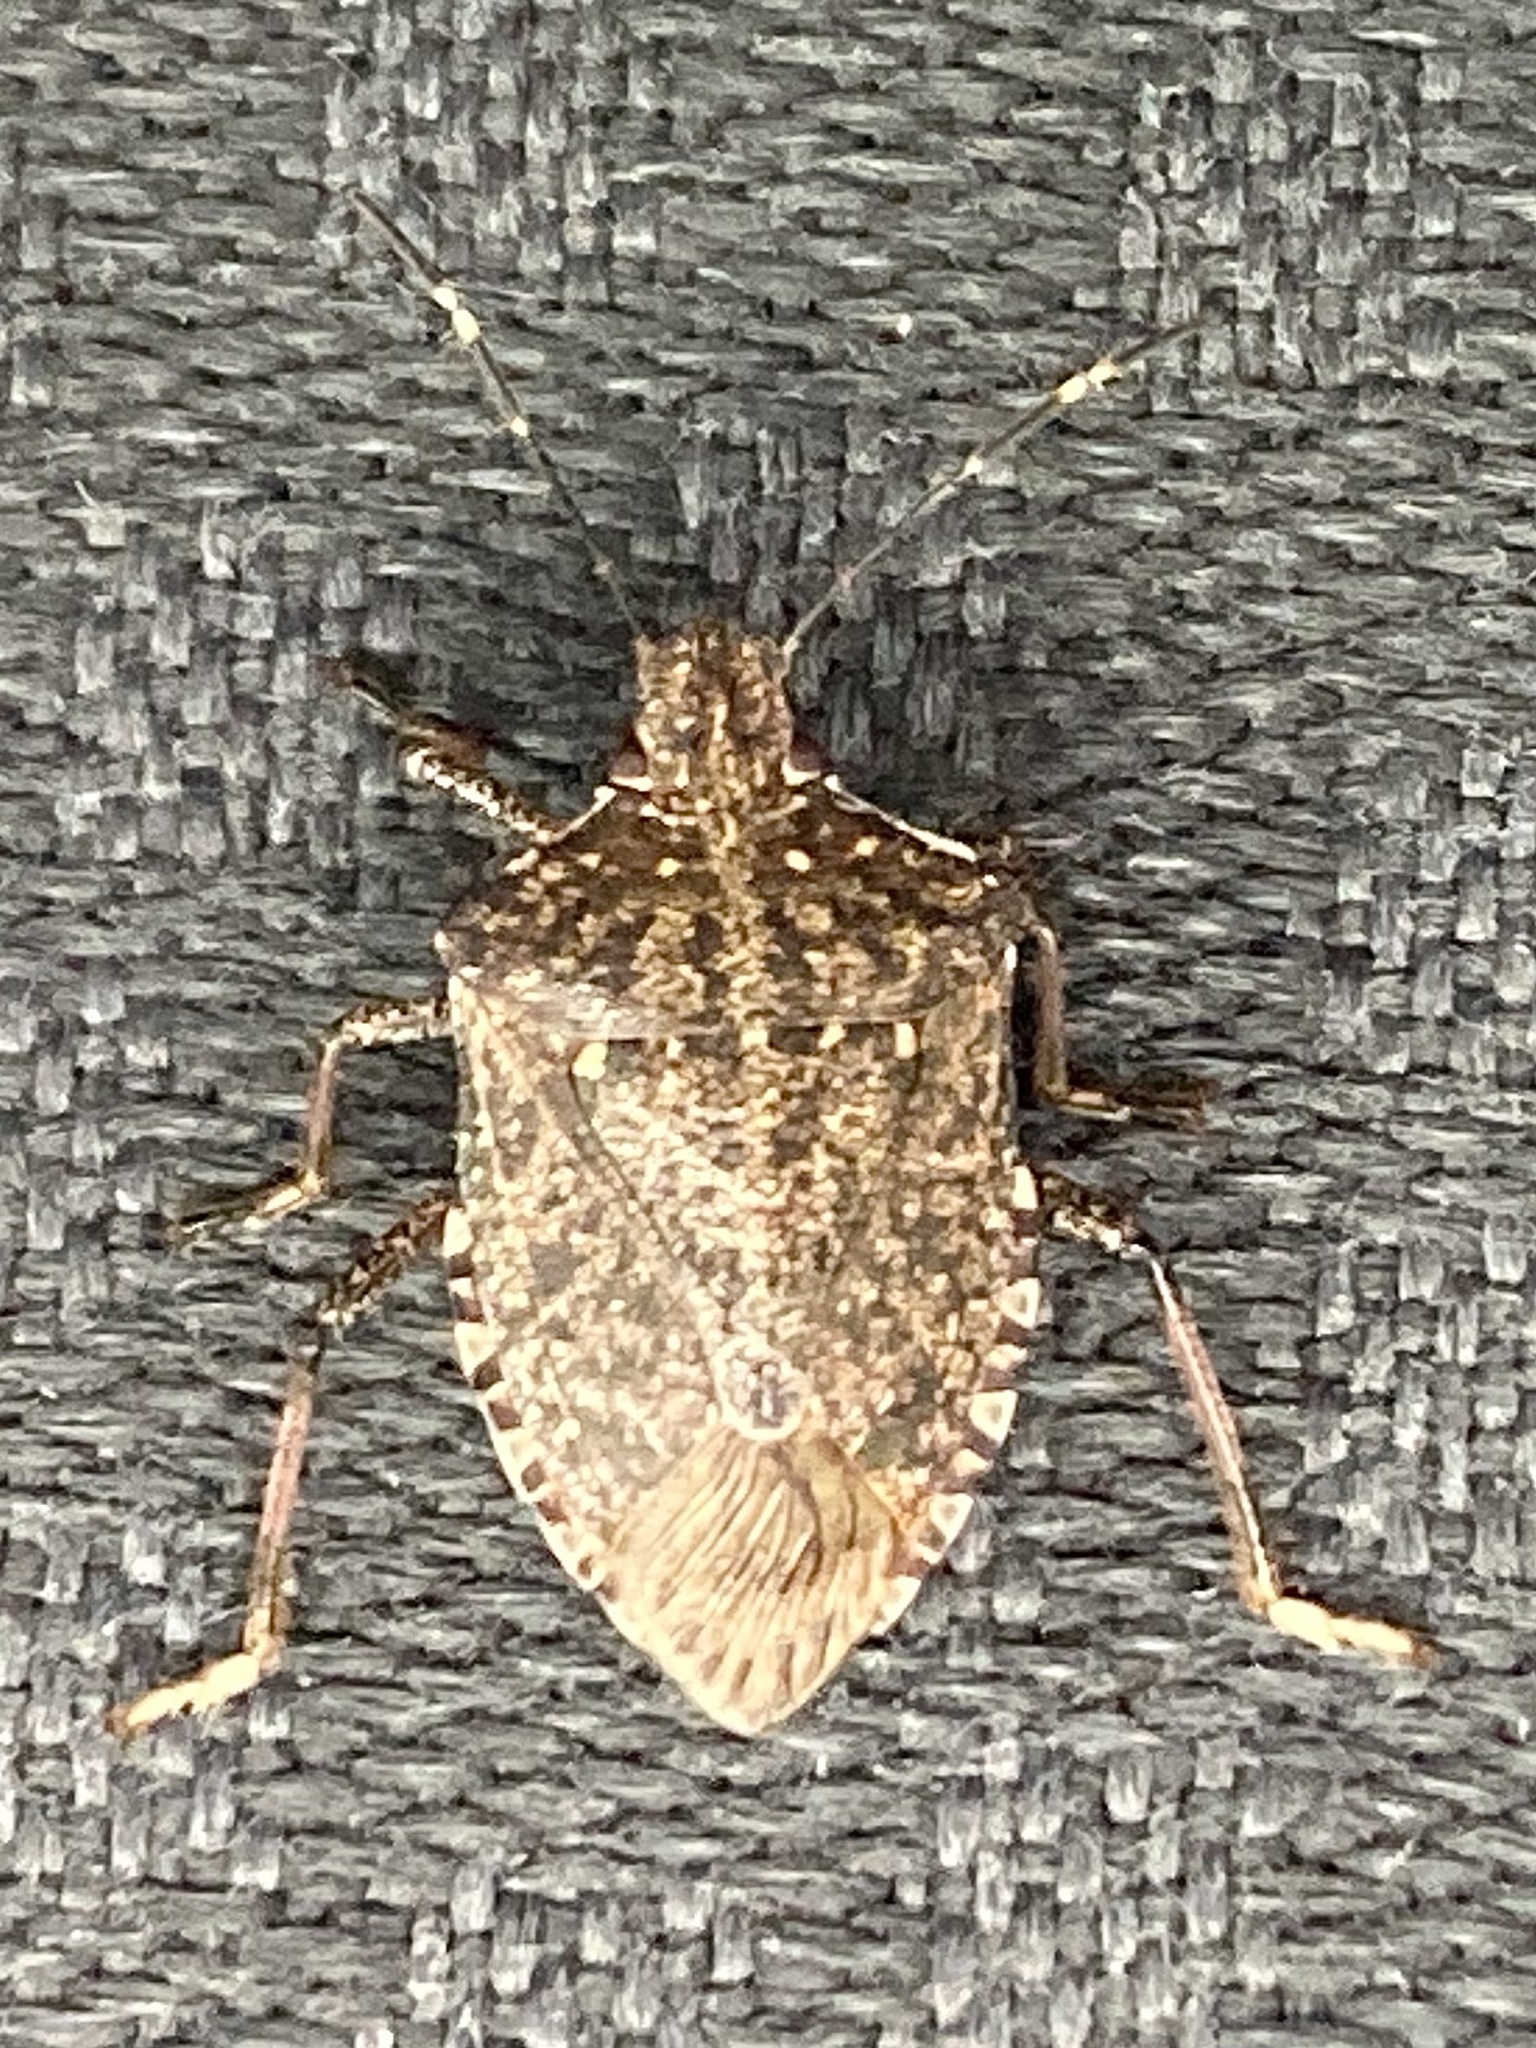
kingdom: Animalia
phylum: Arthropoda
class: Insecta
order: Hemiptera
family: Pentatomidae
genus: Halyomorpha
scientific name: Halyomorpha halys
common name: Brown marmorated stink bug
